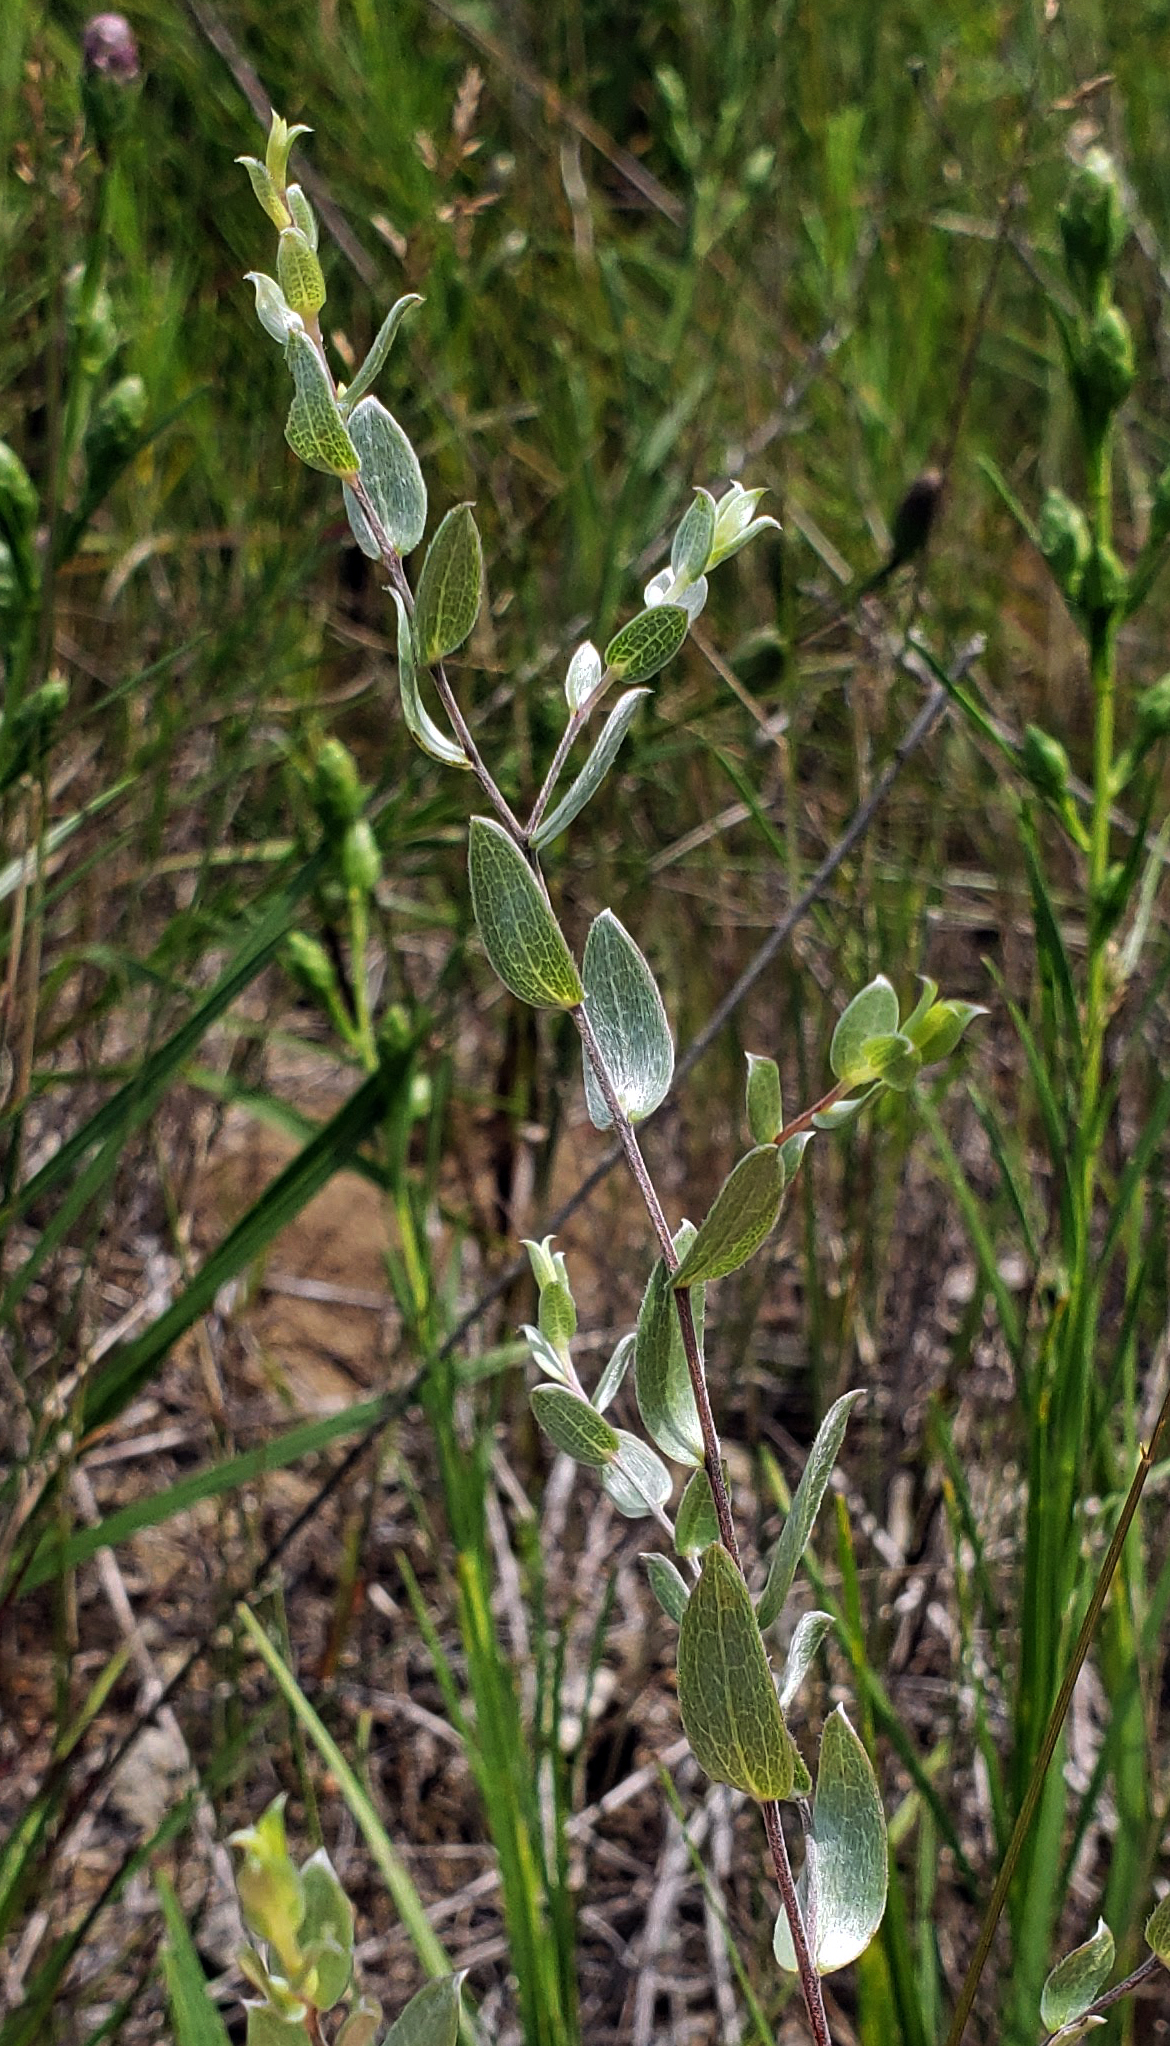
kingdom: Plantae
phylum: Tracheophyta
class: Magnoliopsida
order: Asterales
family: Asteraceae
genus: Symphyotrichum
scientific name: Symphyotrichum sericeum
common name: Silky aster
